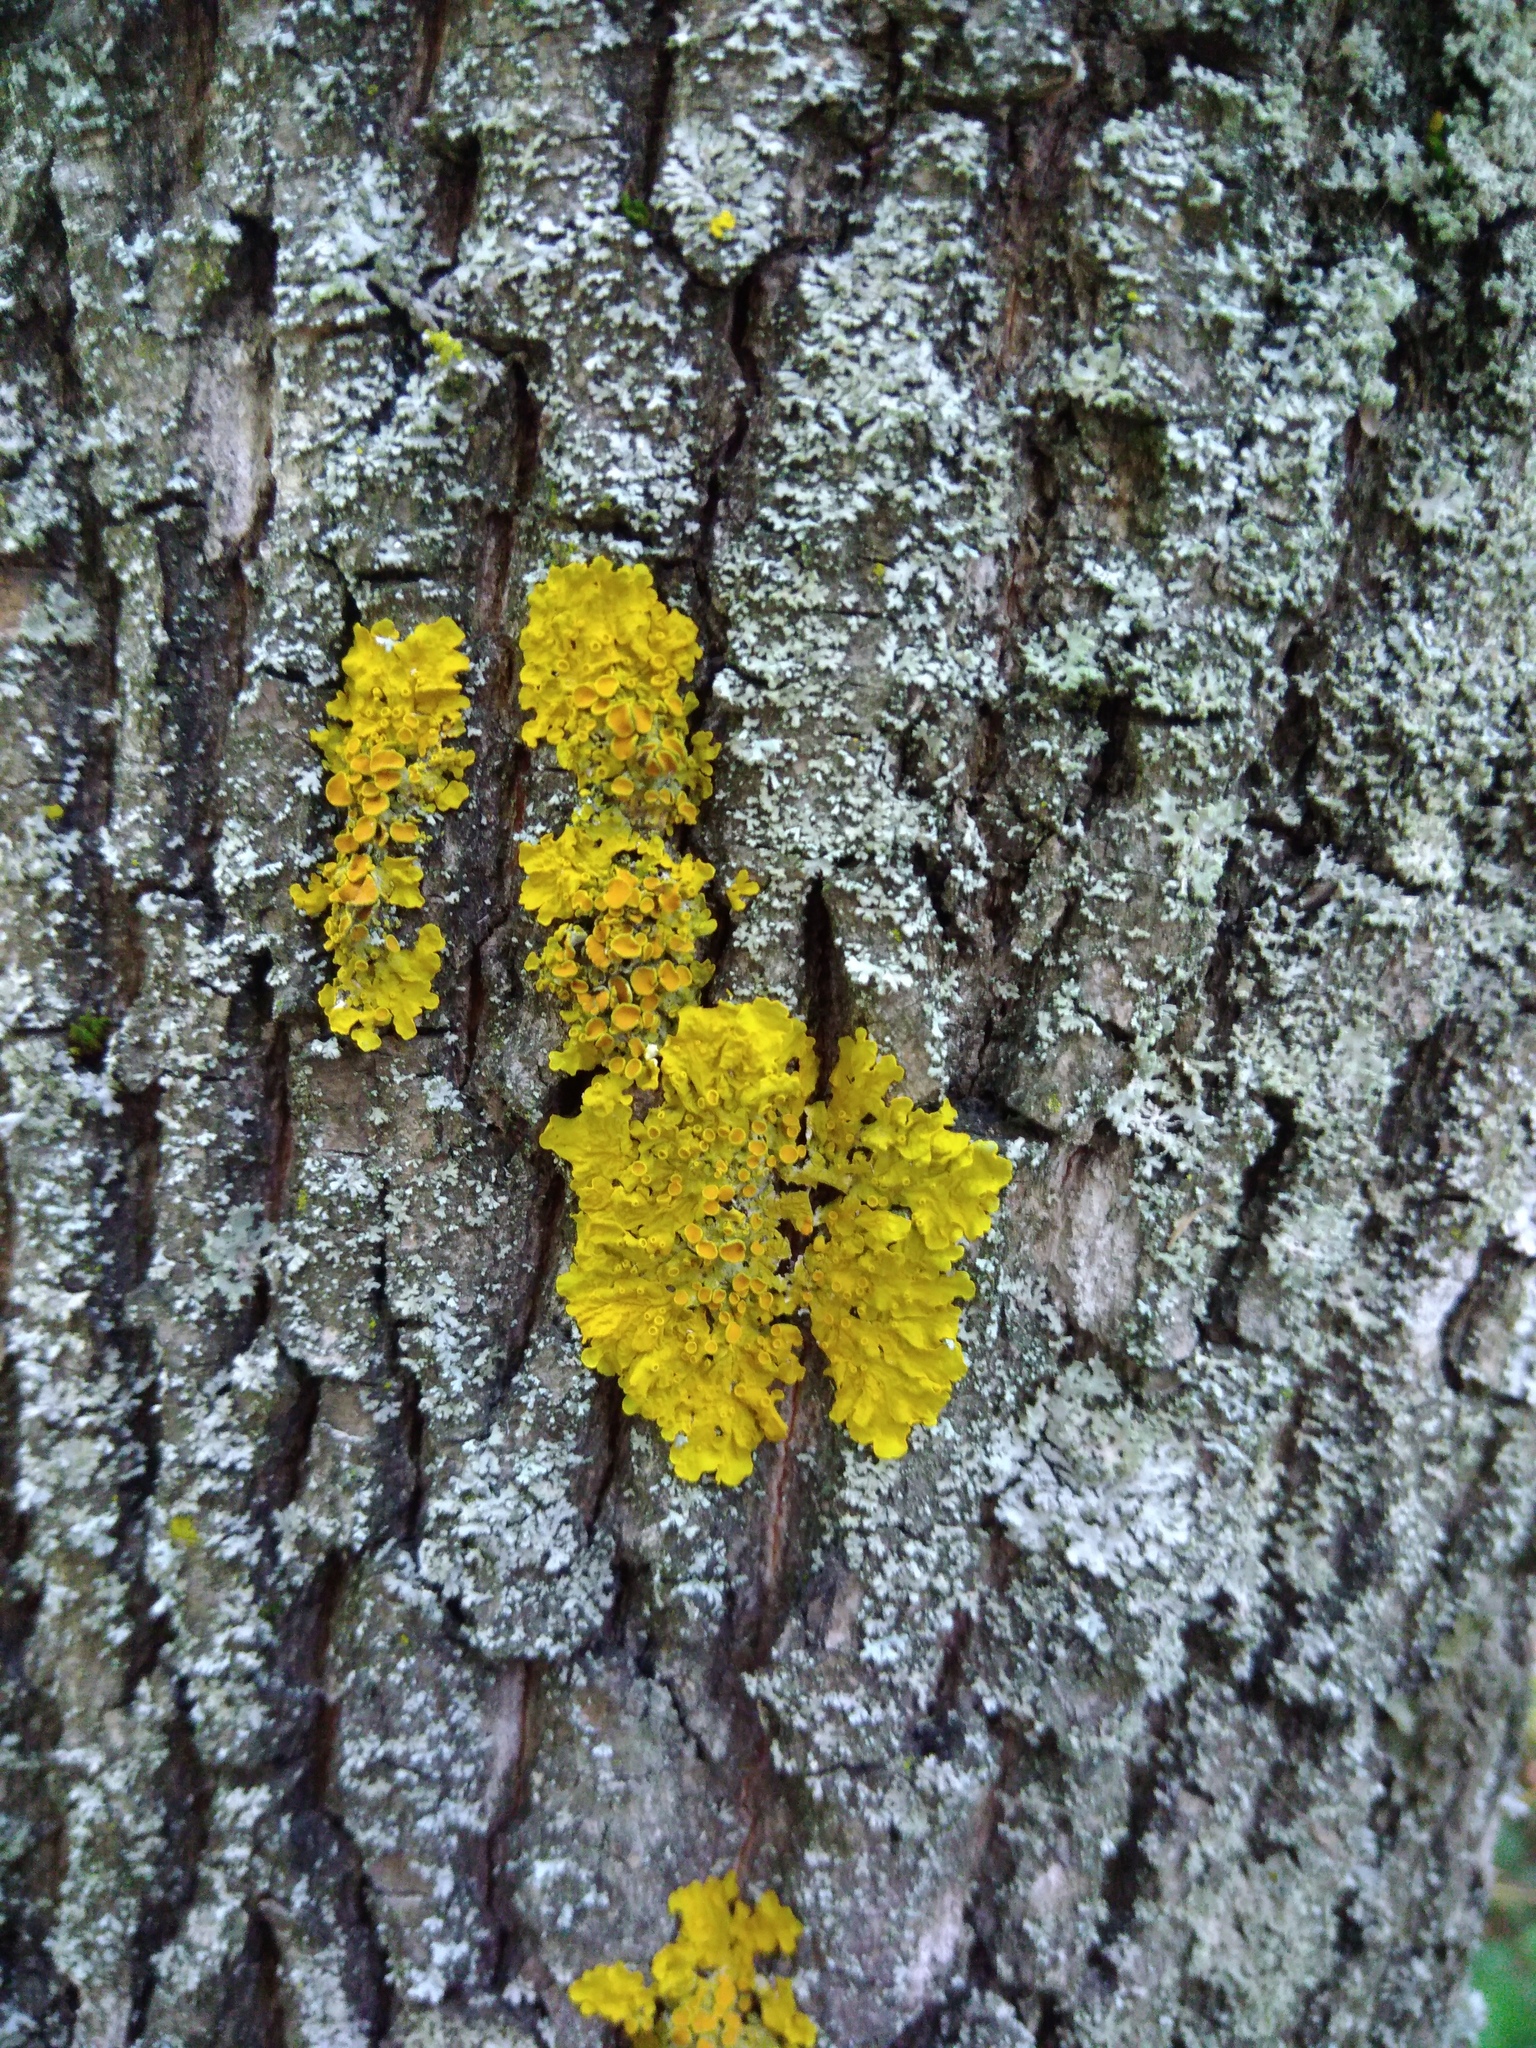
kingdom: Fungi
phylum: Ascomycota
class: Lecanoromycetes
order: Teloschistales
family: Teloschistaceae
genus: Xanthoria
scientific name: Xanthoria parietina
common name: Common orange lichen
